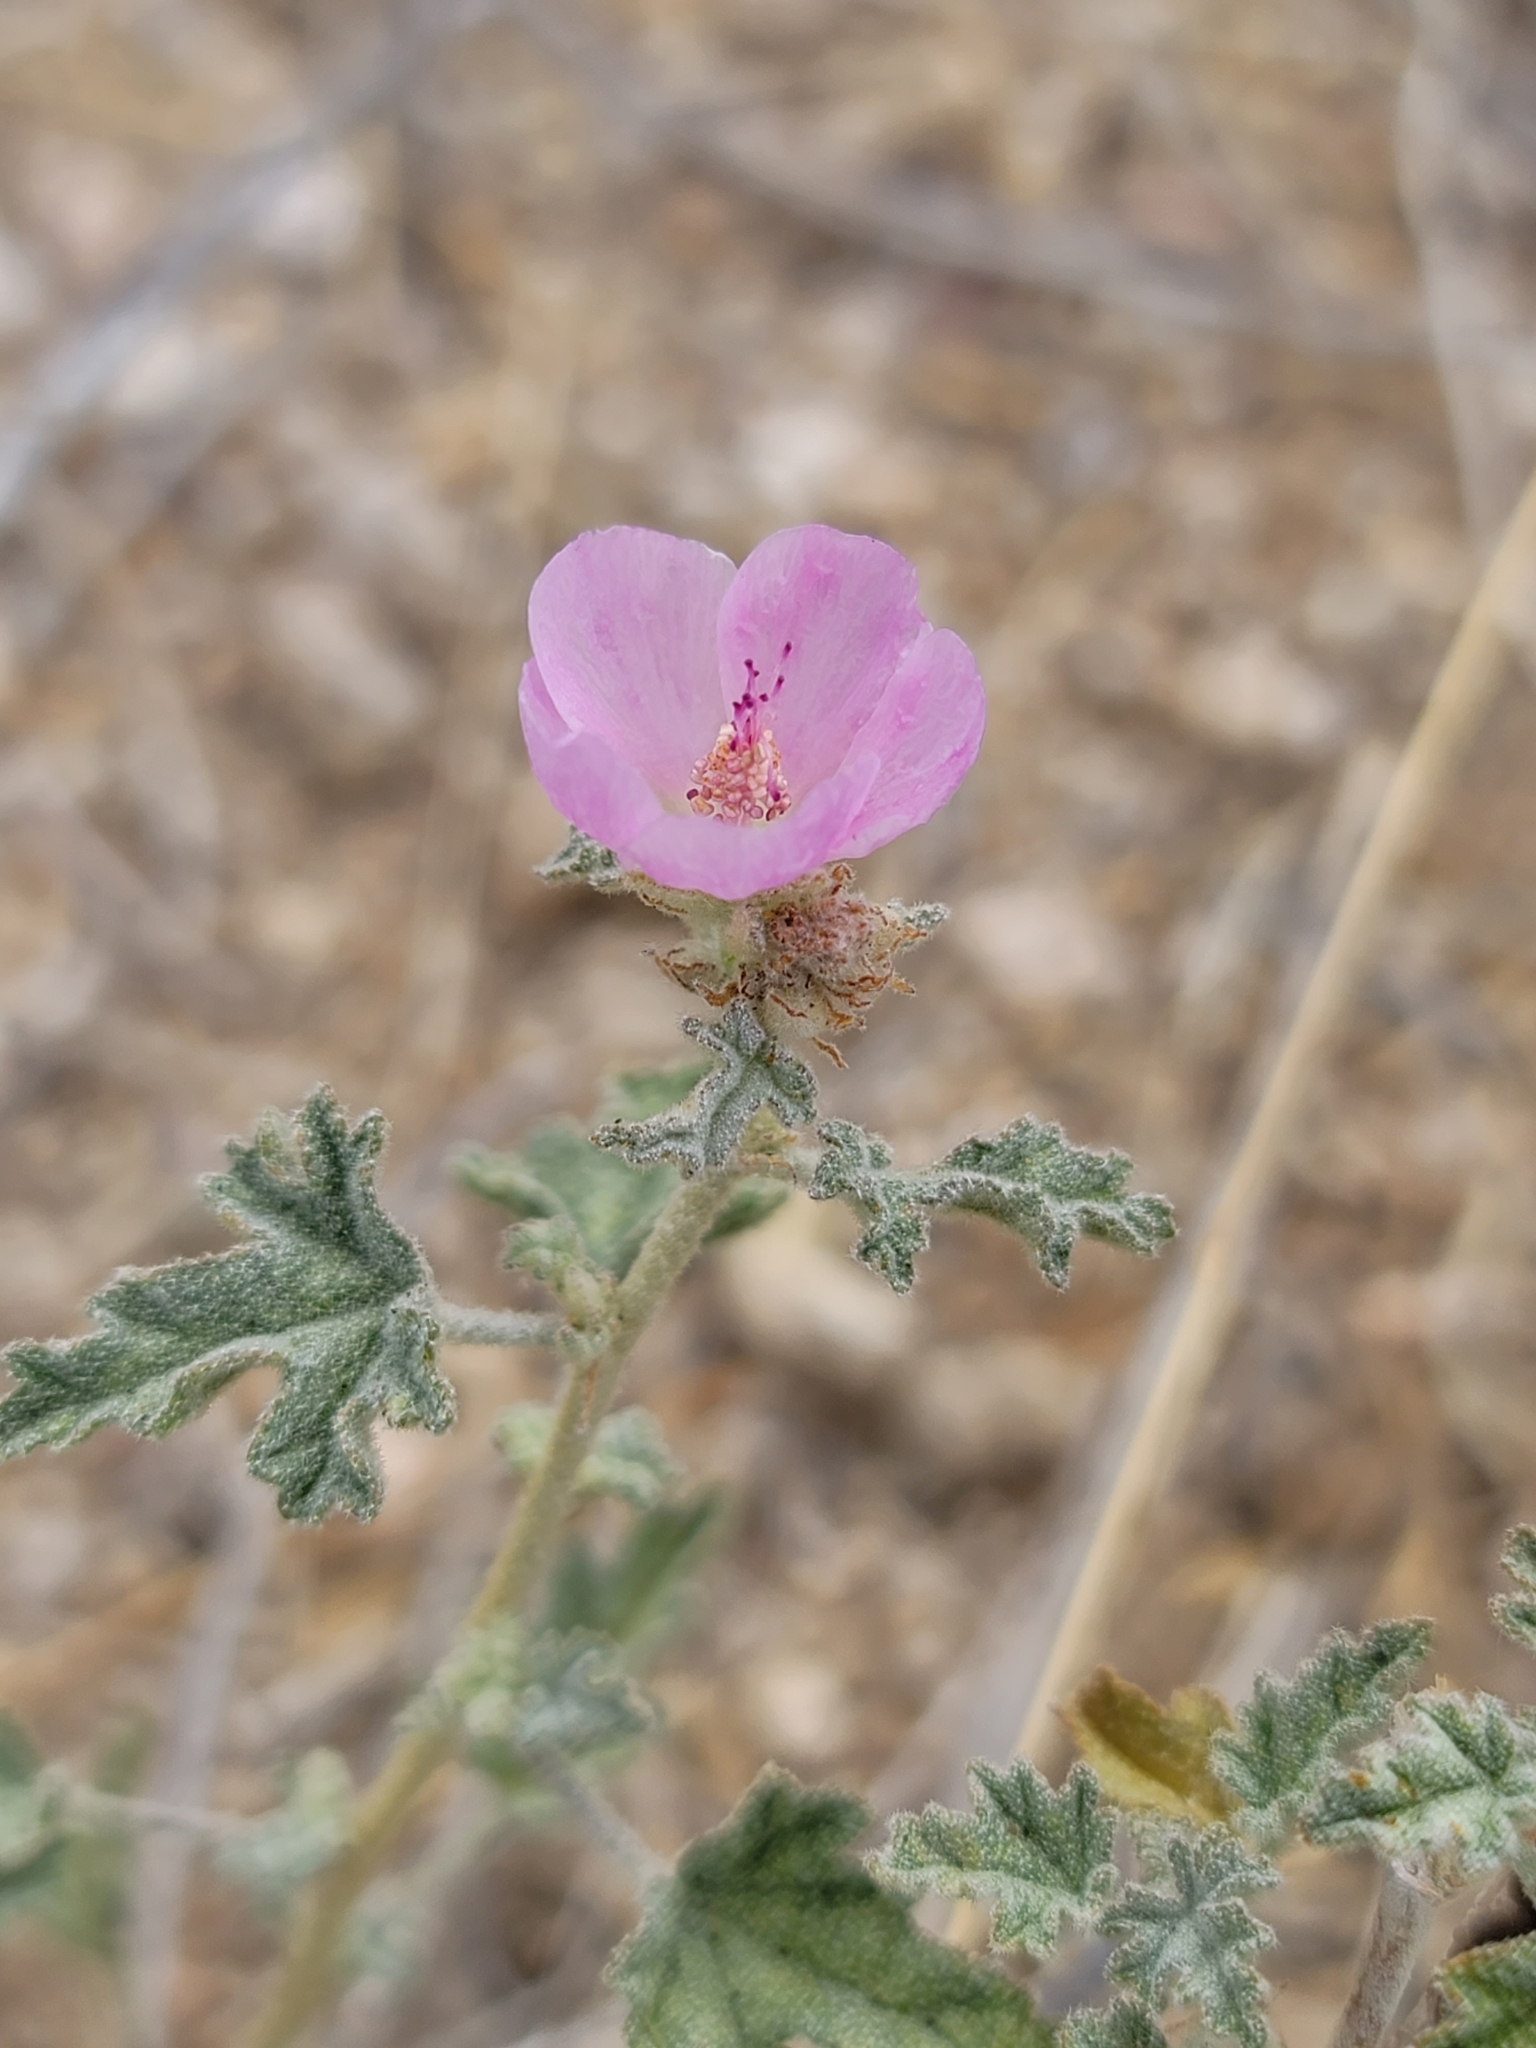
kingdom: Plantae
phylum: Tracheophyta
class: Magnoliopsida
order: Malvales
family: Malvaceae
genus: Sphaeralcea
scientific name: Sphaeralcea ambigua
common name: Apricot globe-mallow
